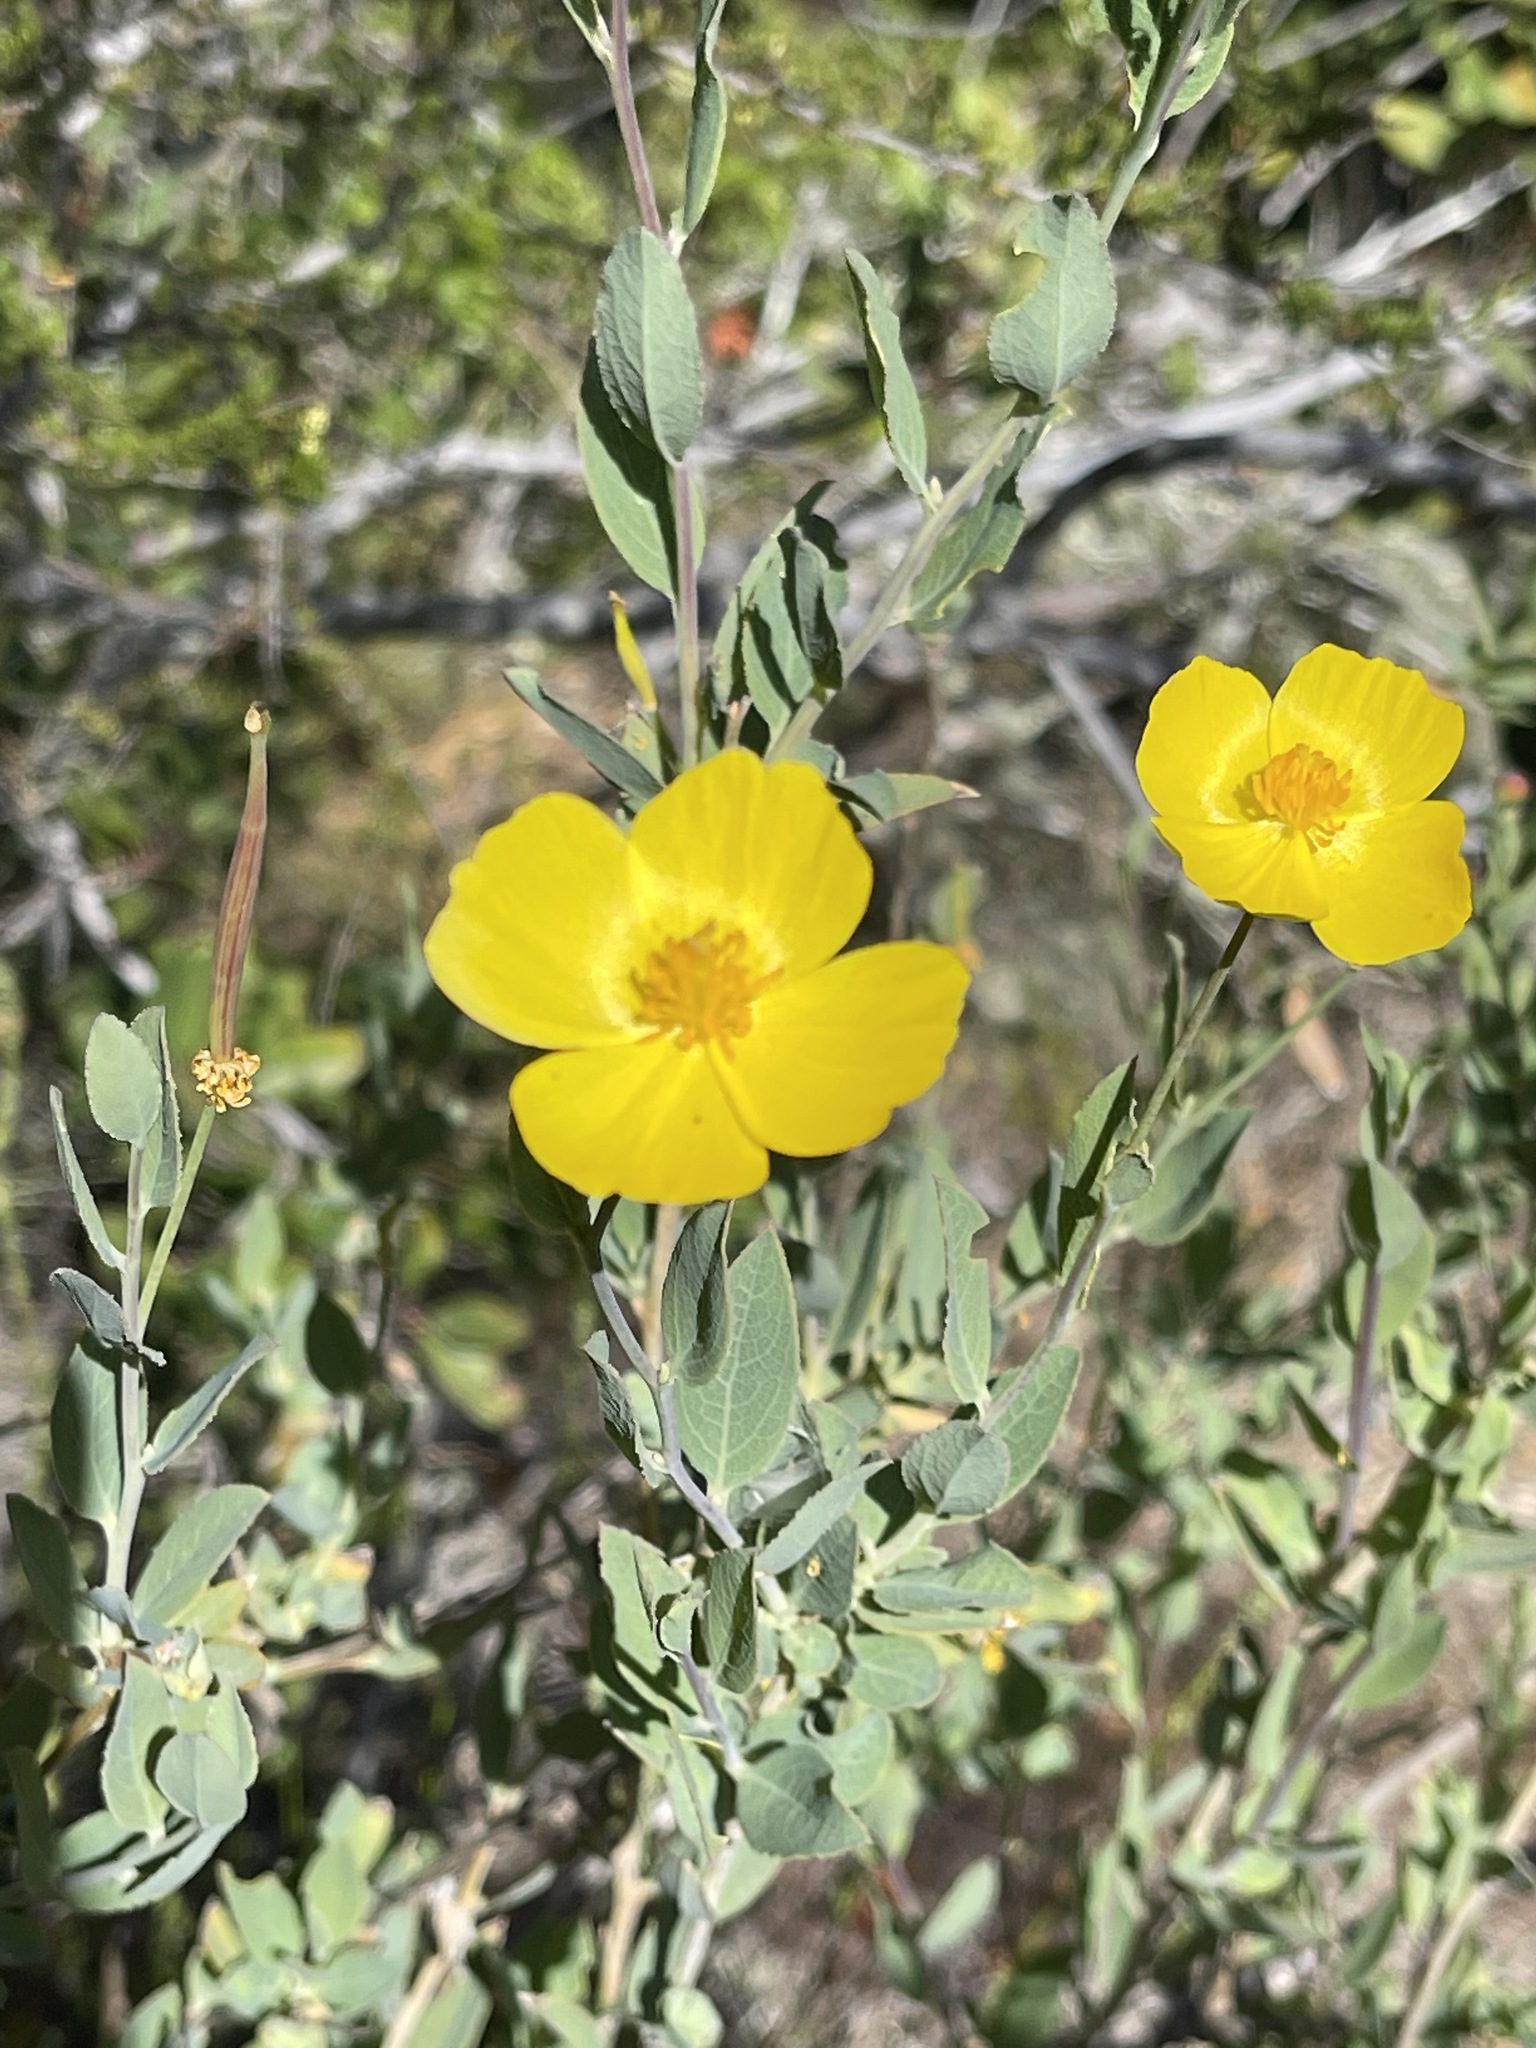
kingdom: Plantae
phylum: Tracheophyta
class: Magnoliopsida
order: Ranunculales
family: Papaveraceae
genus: Dendromecon
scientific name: Dendromecon rigida
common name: Tree poppy
